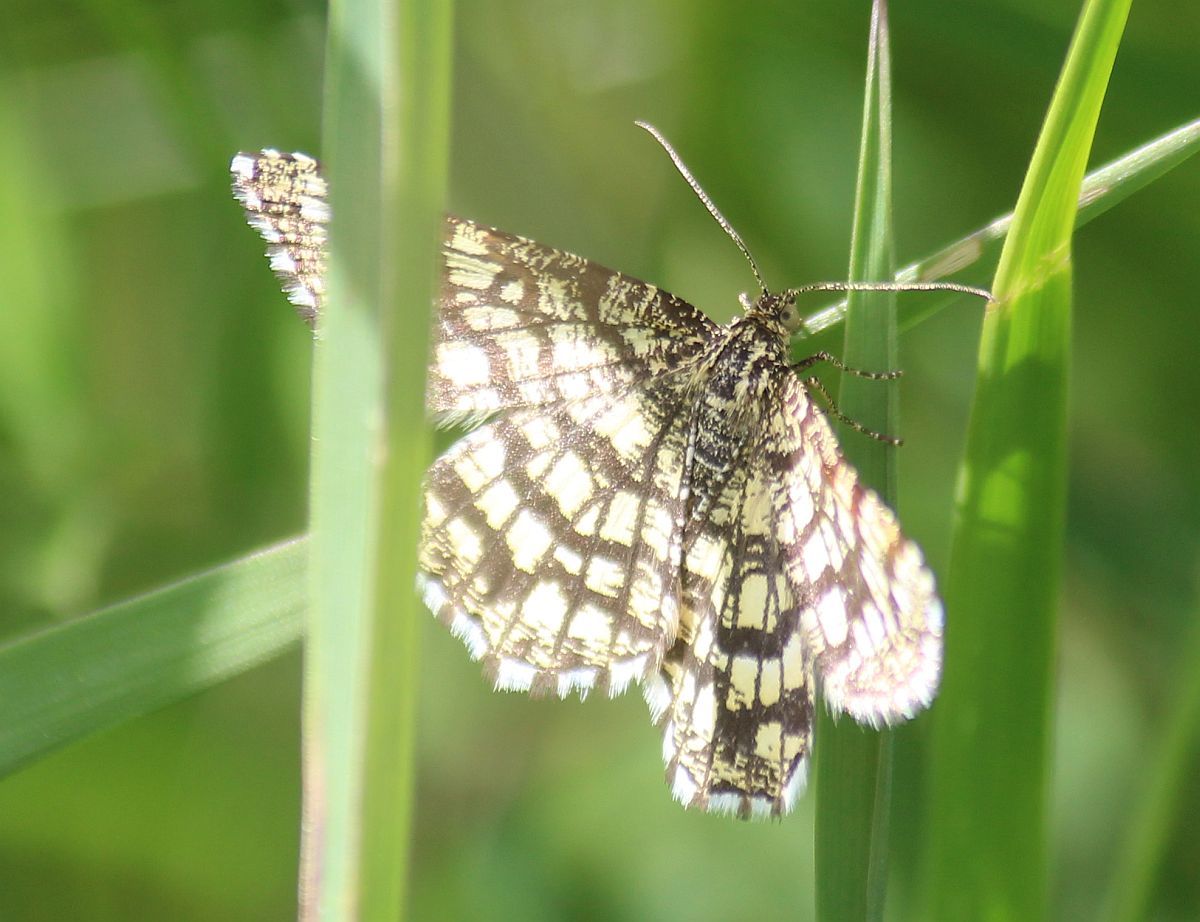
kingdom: Animalia
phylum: Arthropoda
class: Insecta
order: Lepidoptera
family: Geometridae
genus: Chiasmia
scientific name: Chiasmia clathrata
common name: Latticed heath
